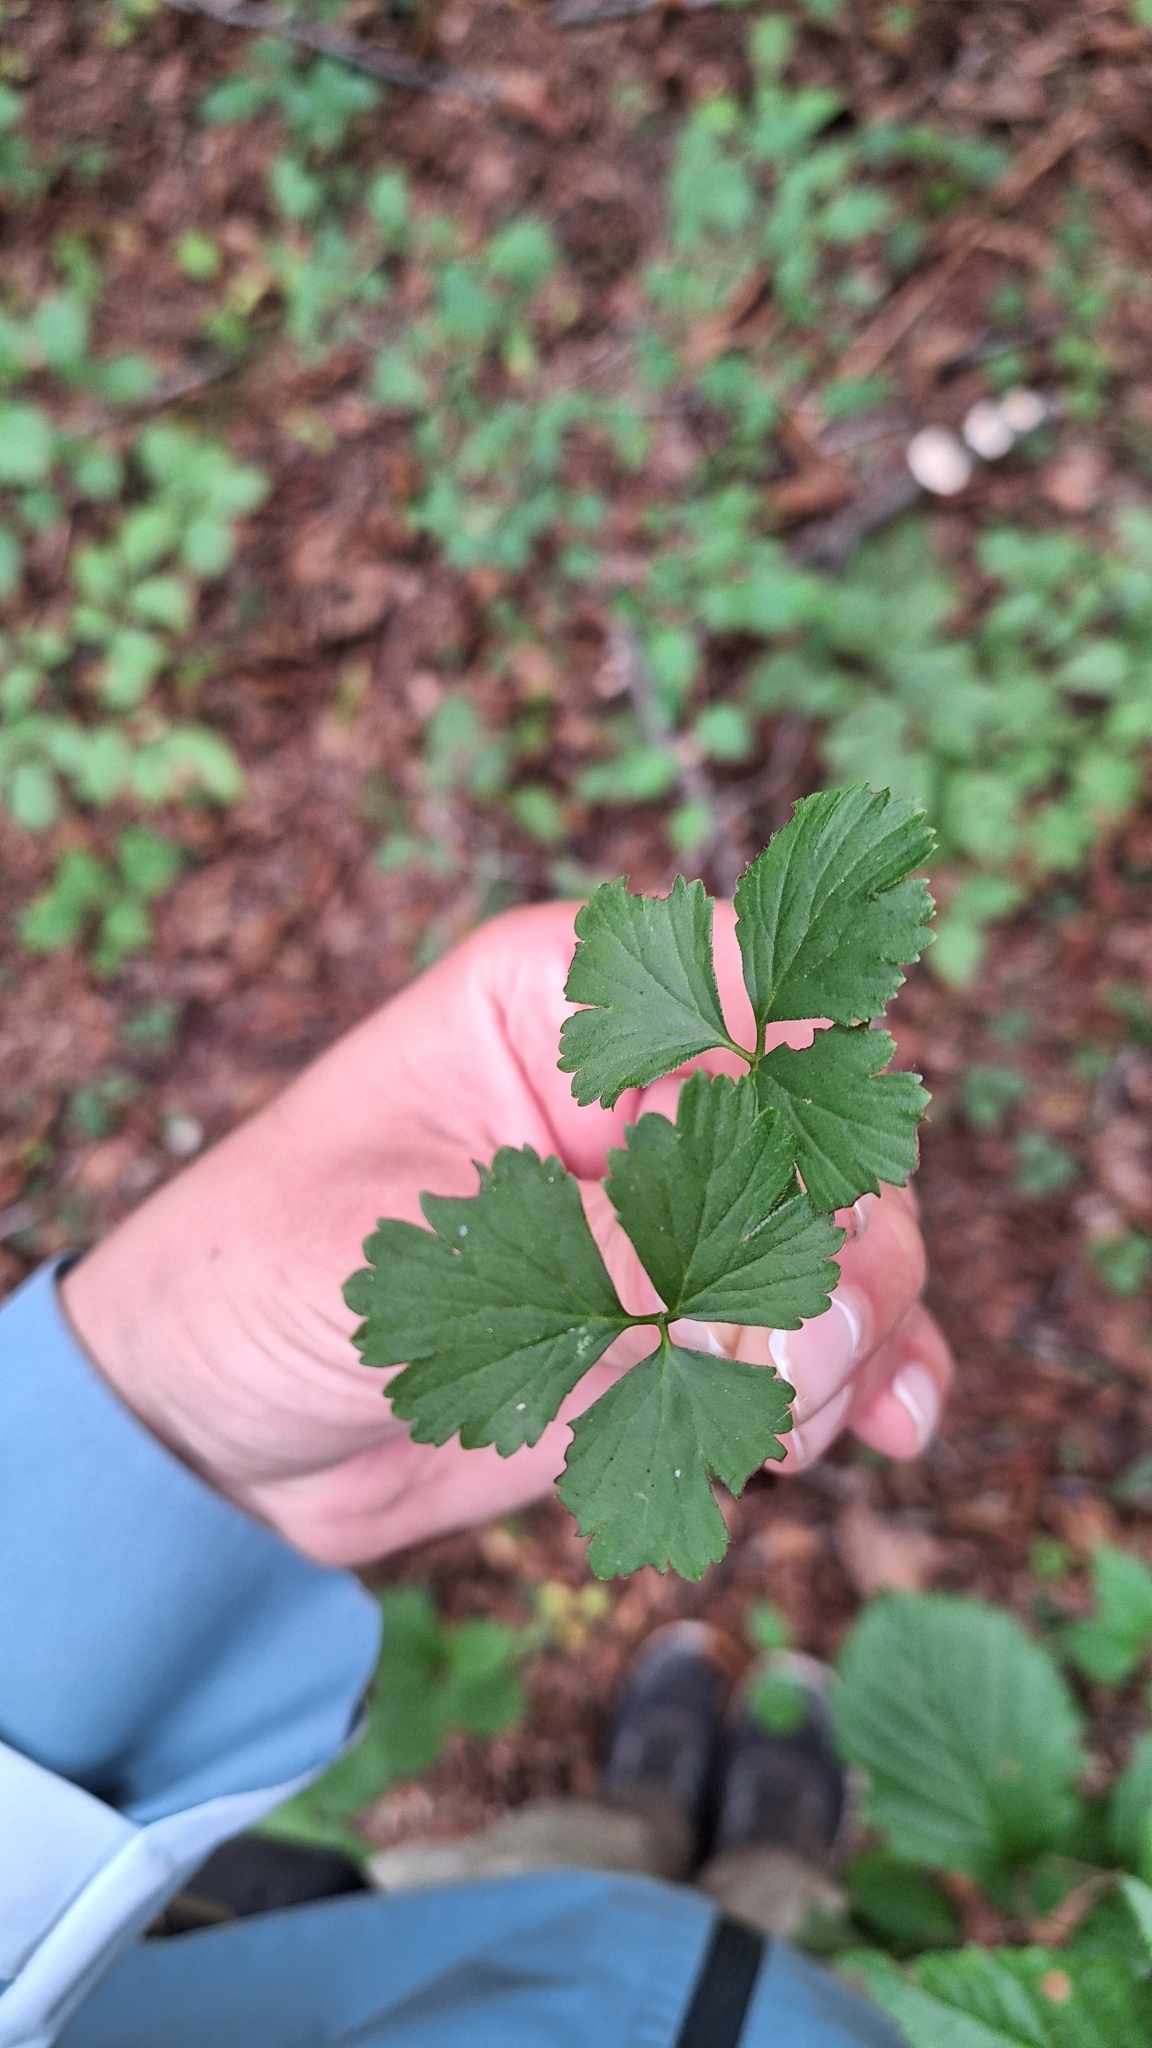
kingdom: Plantae
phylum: Tracheophyta
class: Magnoliopsida
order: Rosales
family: Rosaceae
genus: Geum
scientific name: Geum ternatum
